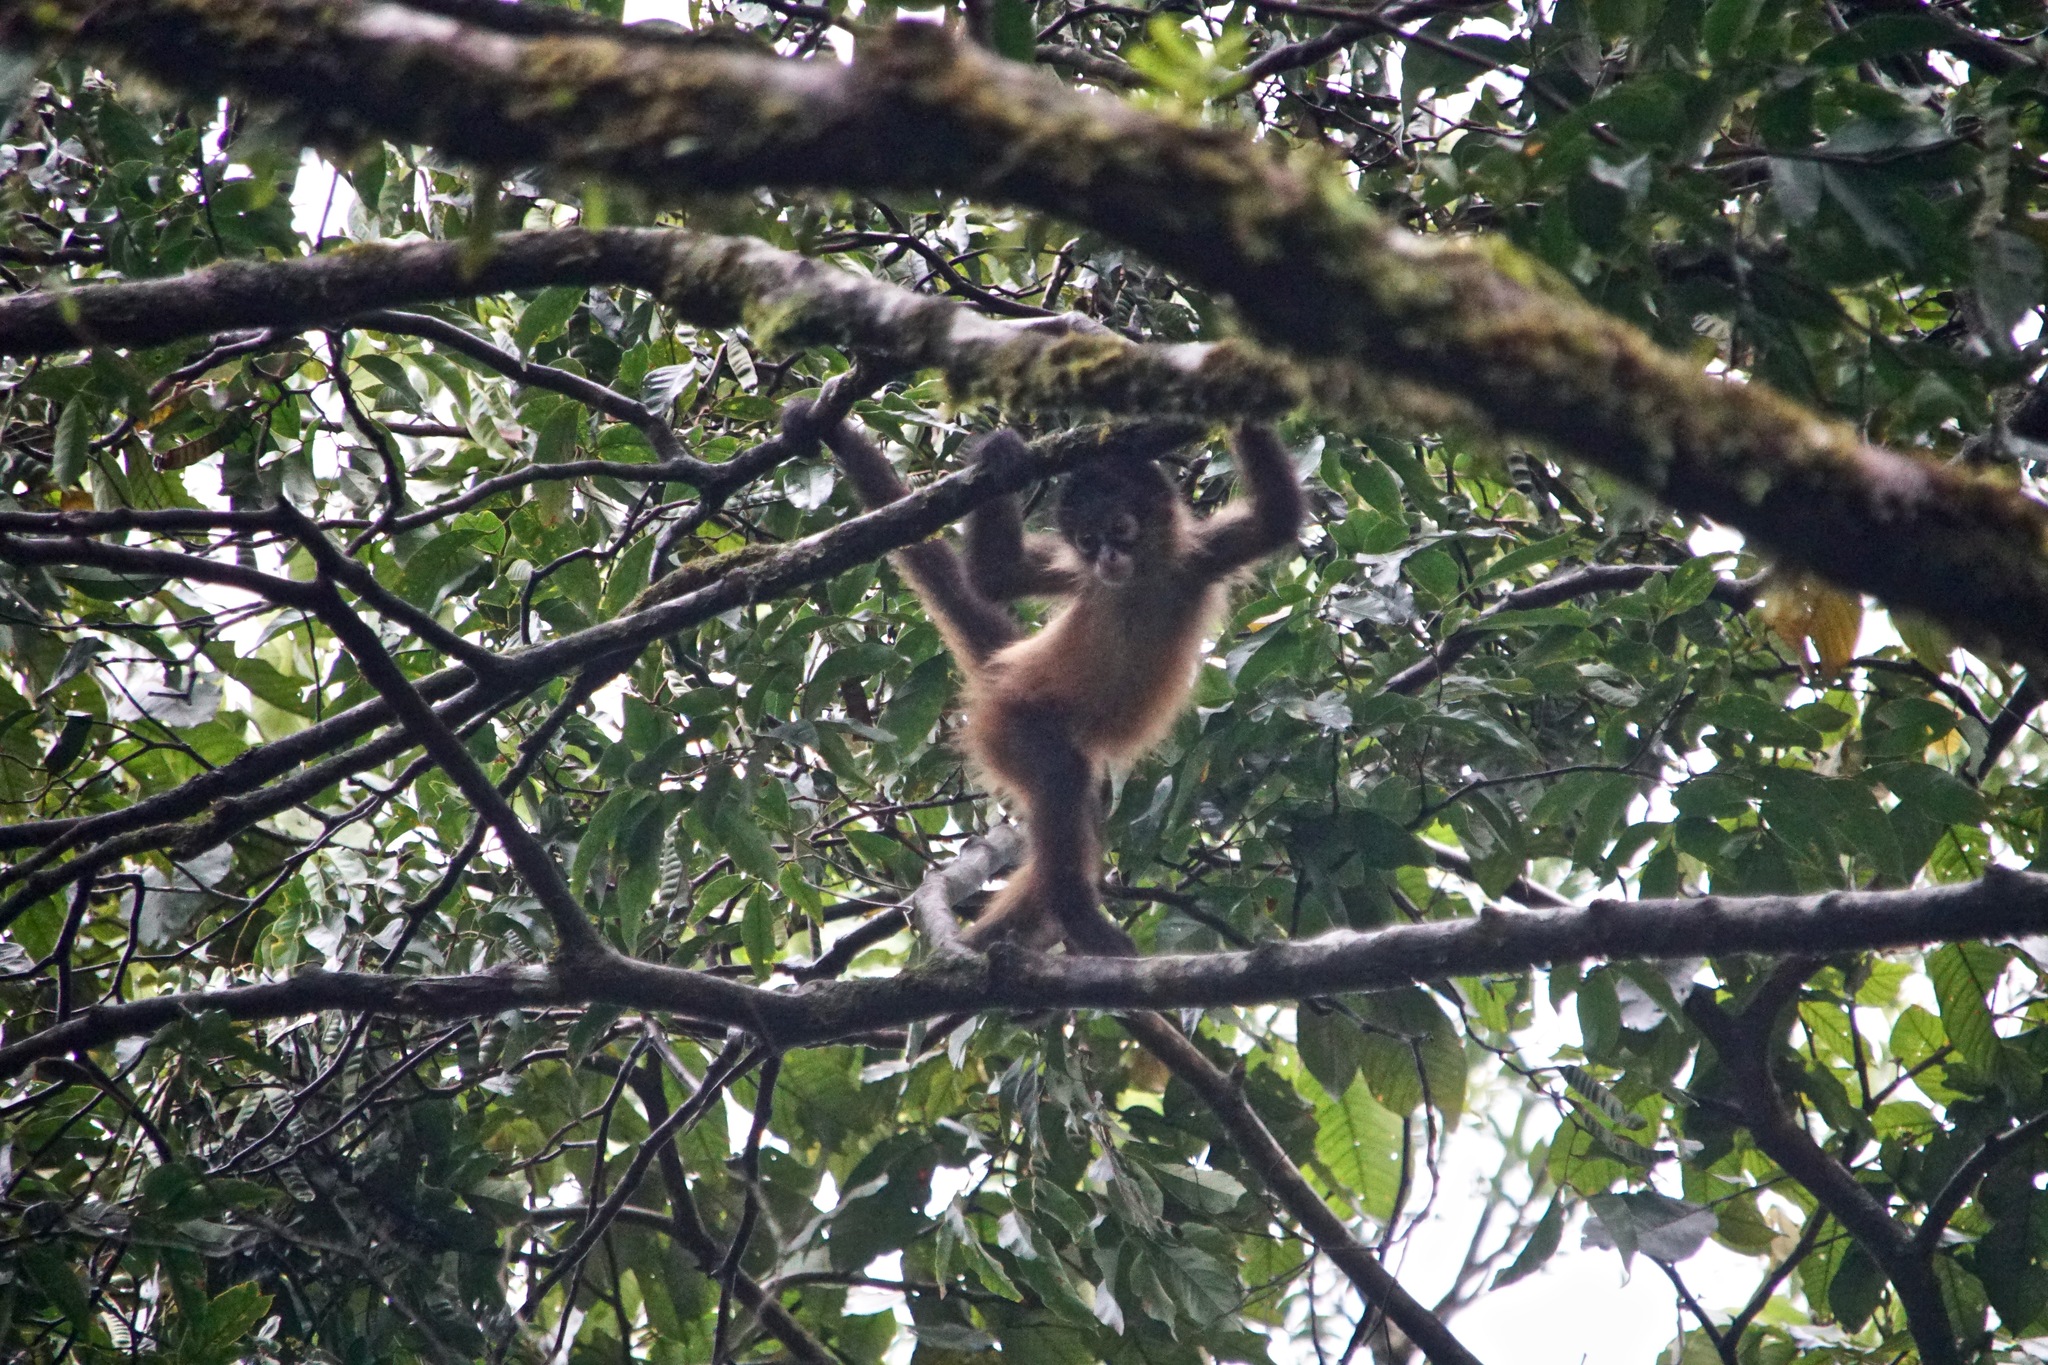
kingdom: Animalia
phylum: Chordata
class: Mammalia
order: Primates
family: Atelidae
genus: Ateles
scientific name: Ateles geoffroyi
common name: Black-handed spider monkey
